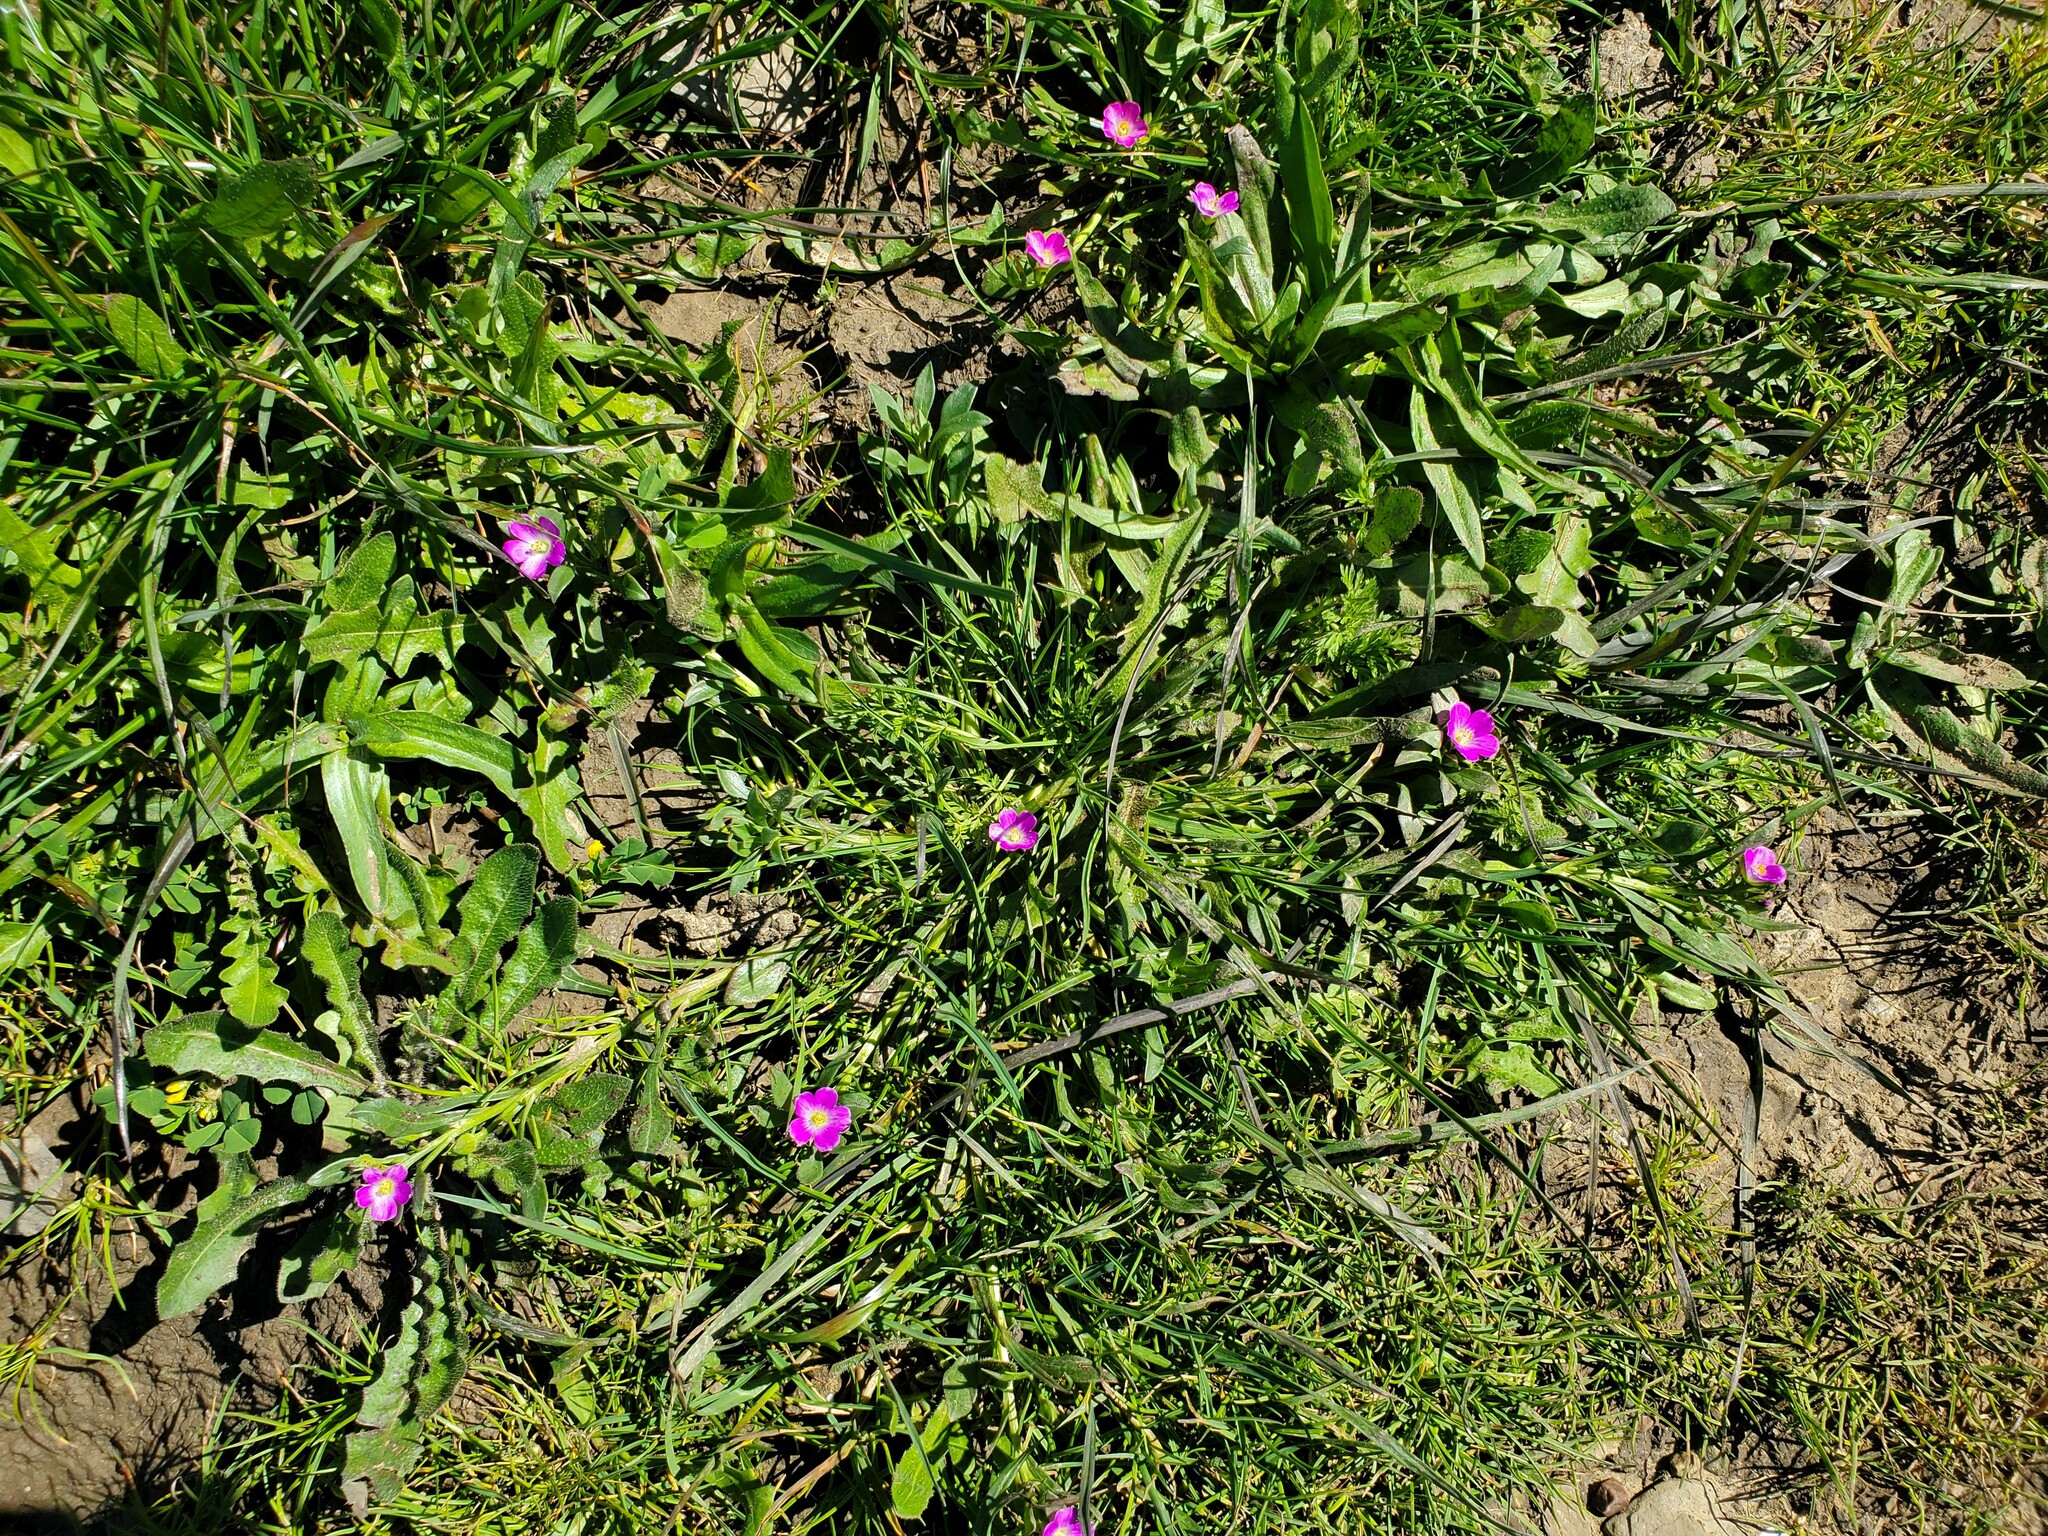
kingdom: Plantae
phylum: Tracheophyta
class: Magnoliopsida
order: Caryophyllales
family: Montiaceae
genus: Calandrinia
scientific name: Calandrinia menziesii
